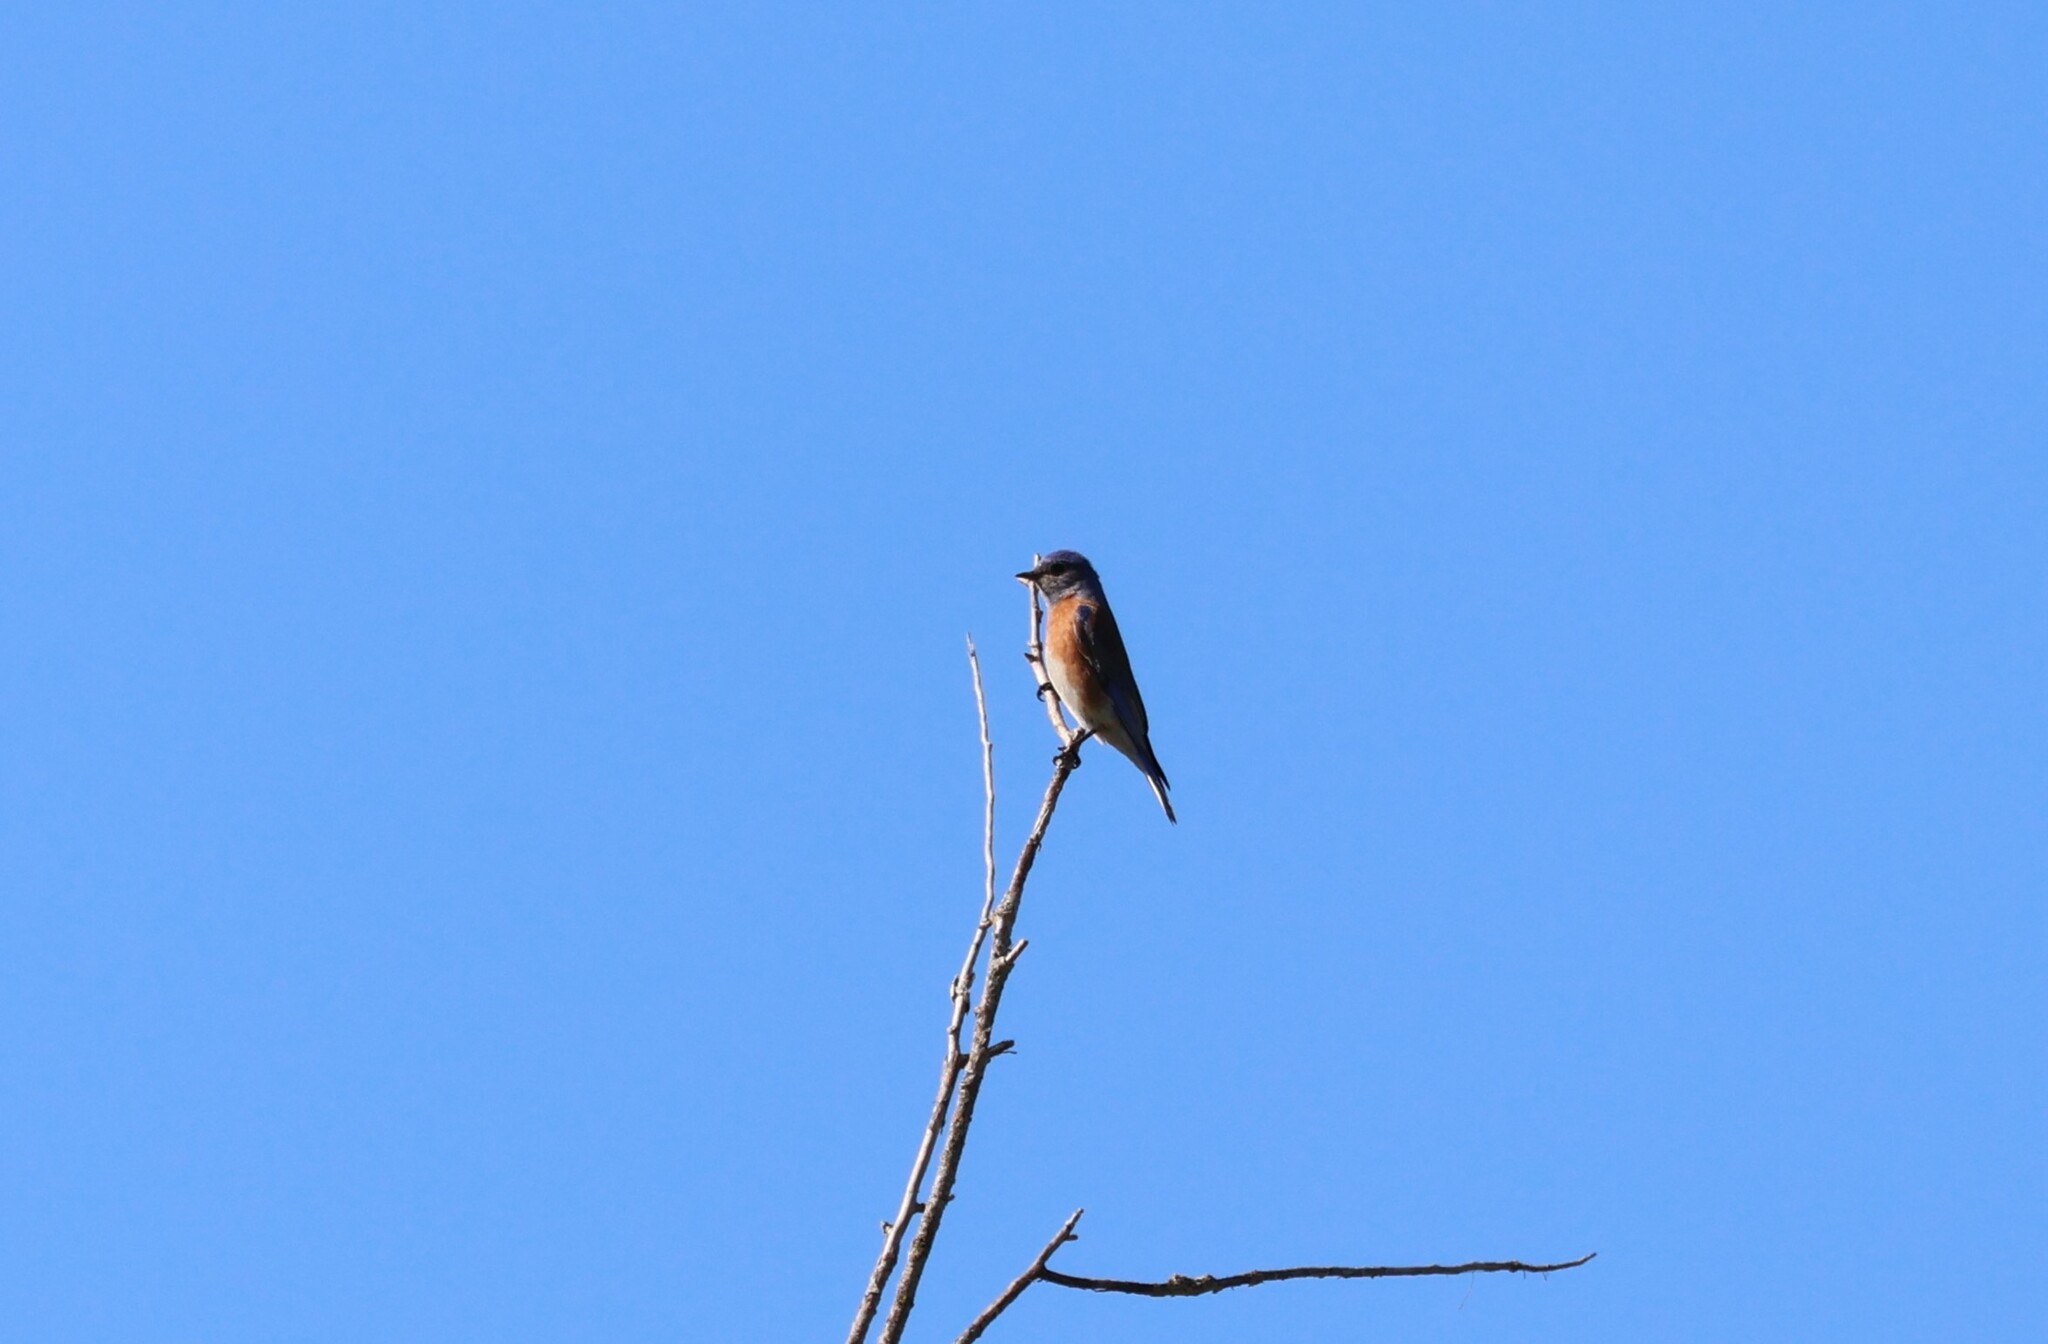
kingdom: Animalia
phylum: Chordata
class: Aves
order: Passeriformes
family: Turdidae
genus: Sialia
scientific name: Sialia mexicana
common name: Western bluebird
